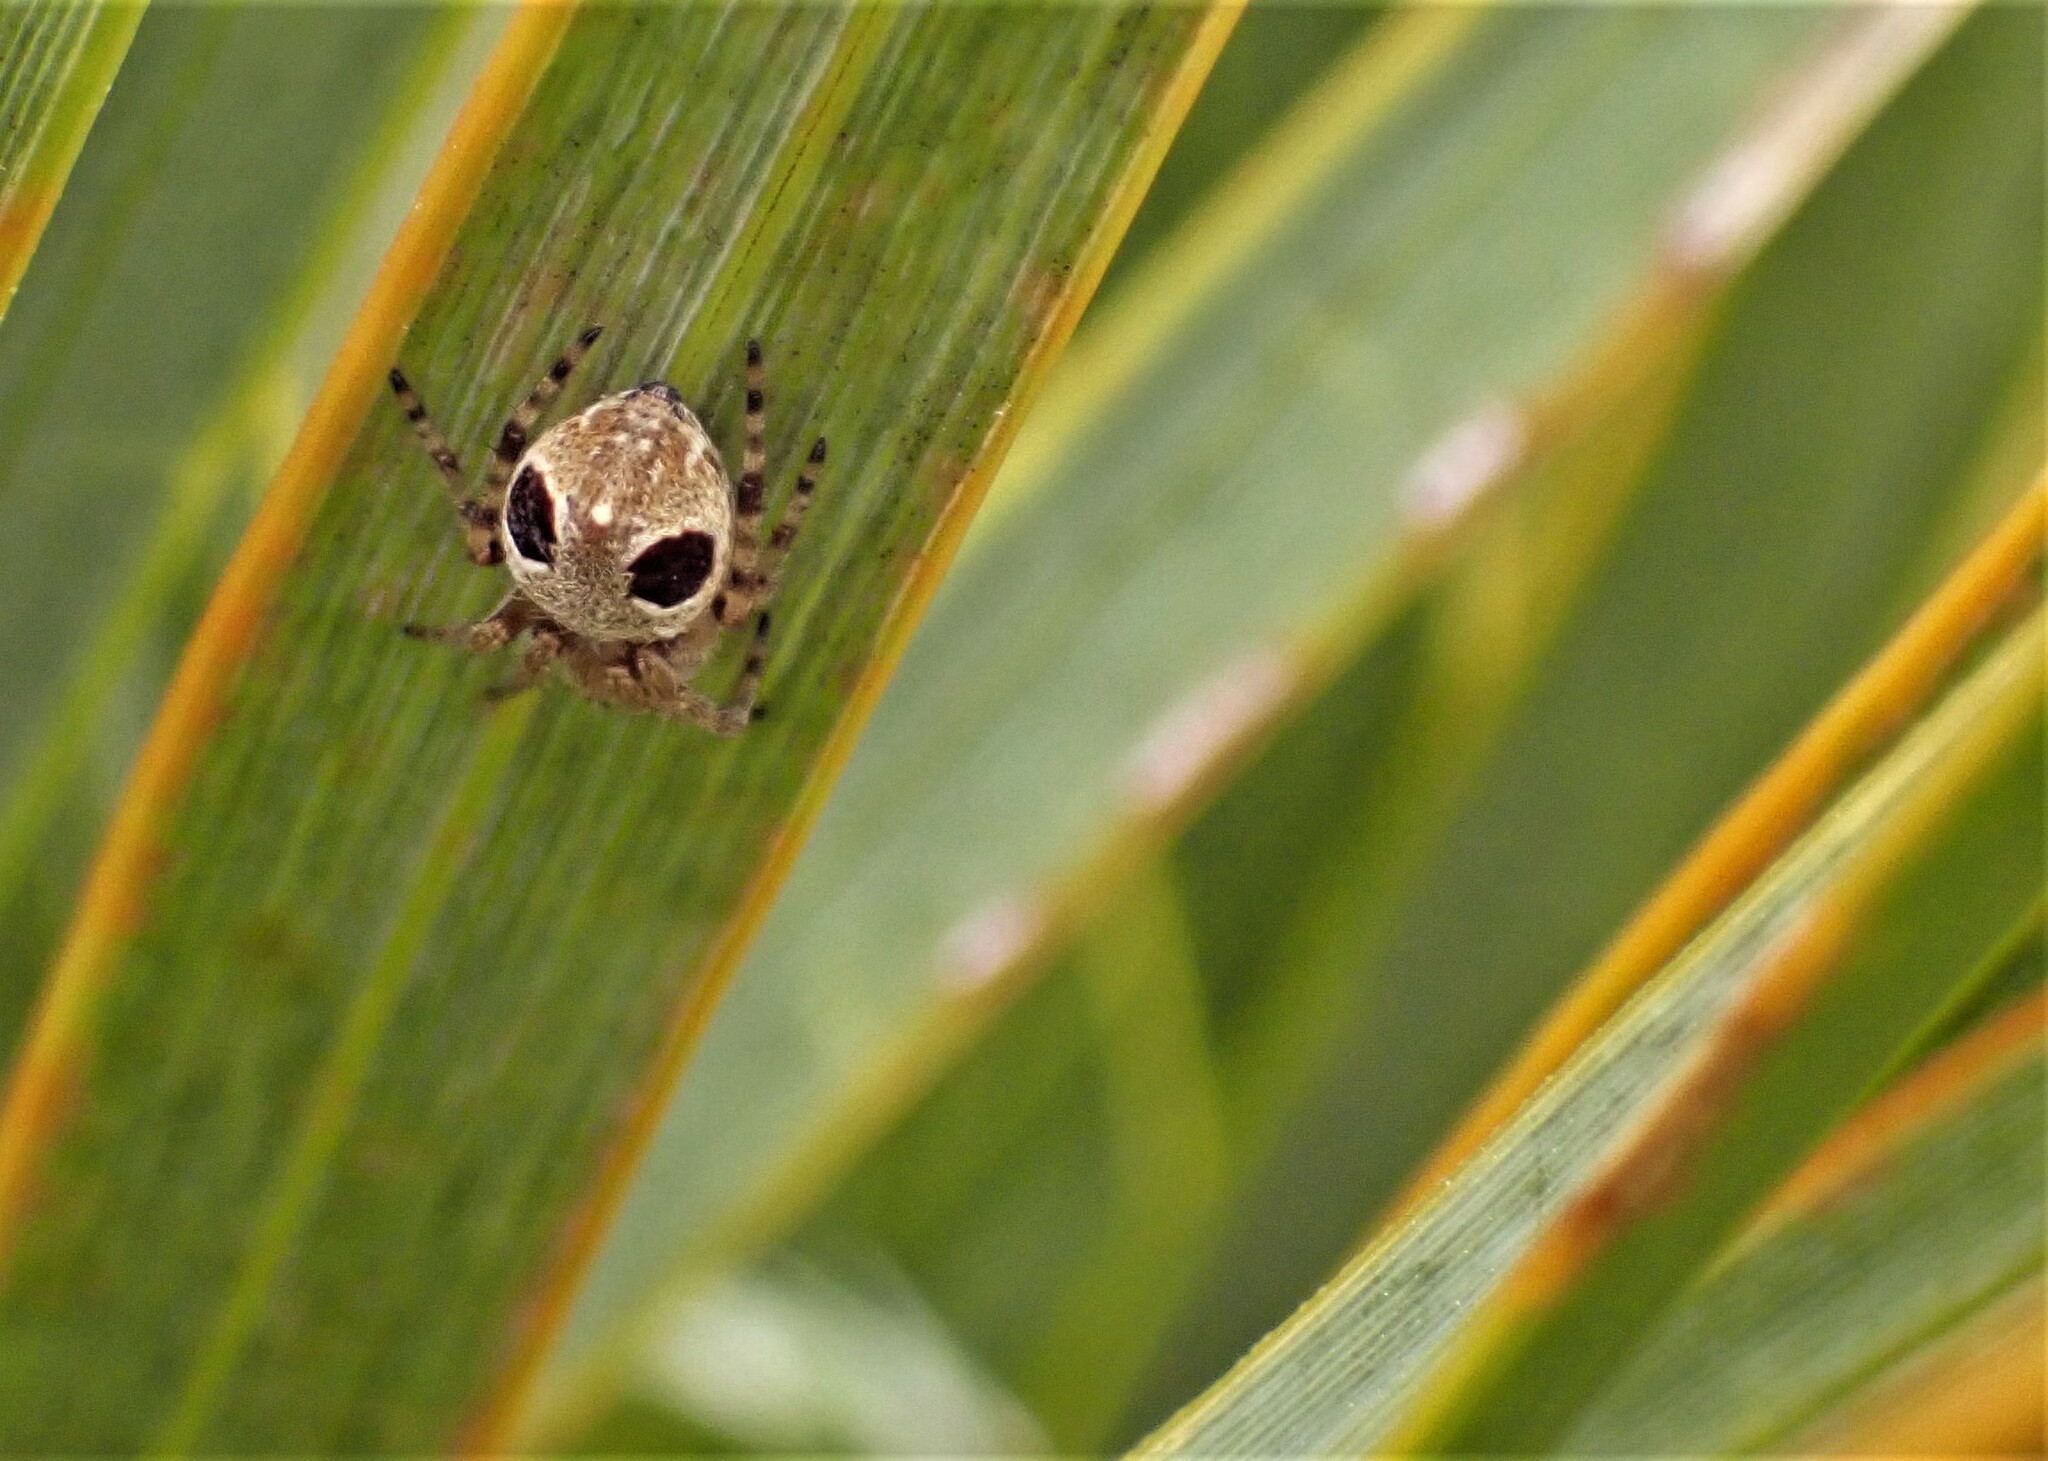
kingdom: Animalia
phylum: Arthropoda
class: Arachnida
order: Araneae
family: Araneidae
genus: Salsa
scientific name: Salsa fuliginata
